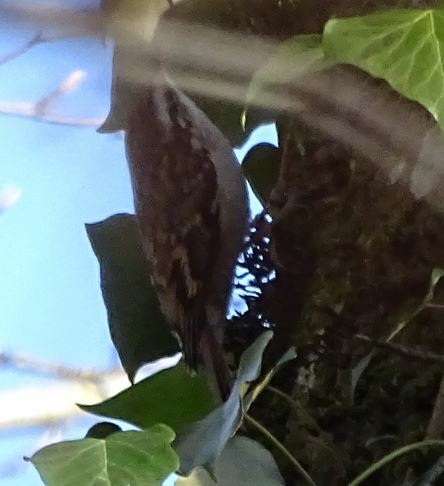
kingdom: Animalia
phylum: Chordata
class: Aves
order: Passeriformes
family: Certhiidae
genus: Certhia
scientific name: Certhia brachydactyla
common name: Short-toed treecreeper
